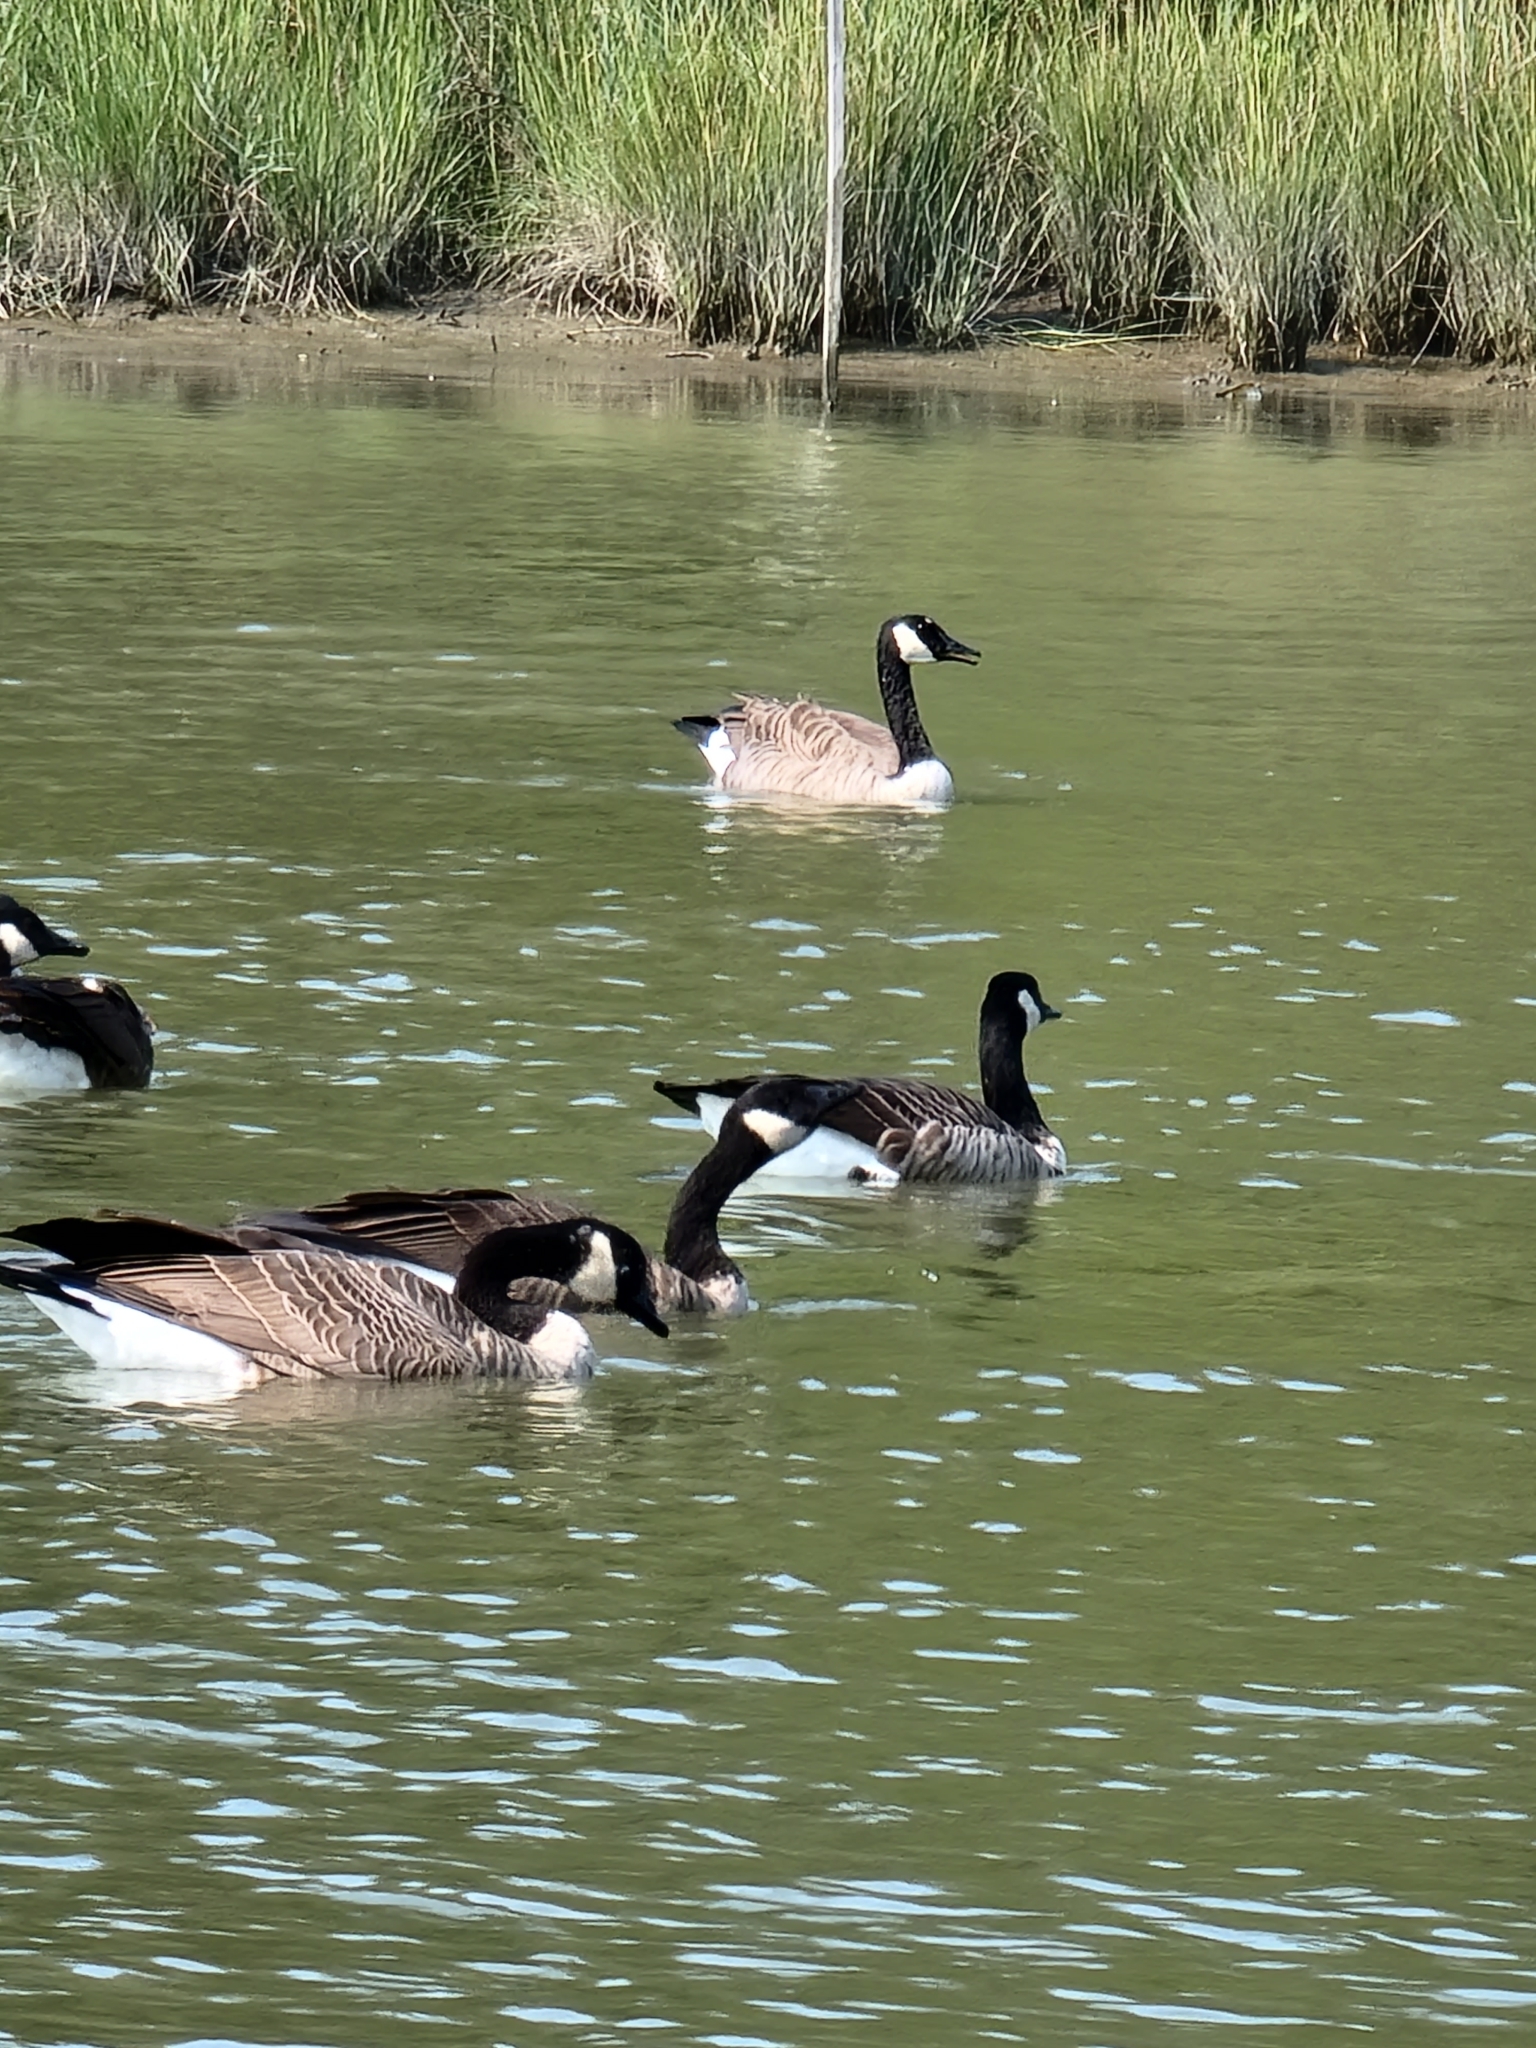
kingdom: Animalia
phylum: Chordata
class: Aves
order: Anseriformes
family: Anatidae
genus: Branta
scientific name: Branta canadensis
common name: Canada goose
